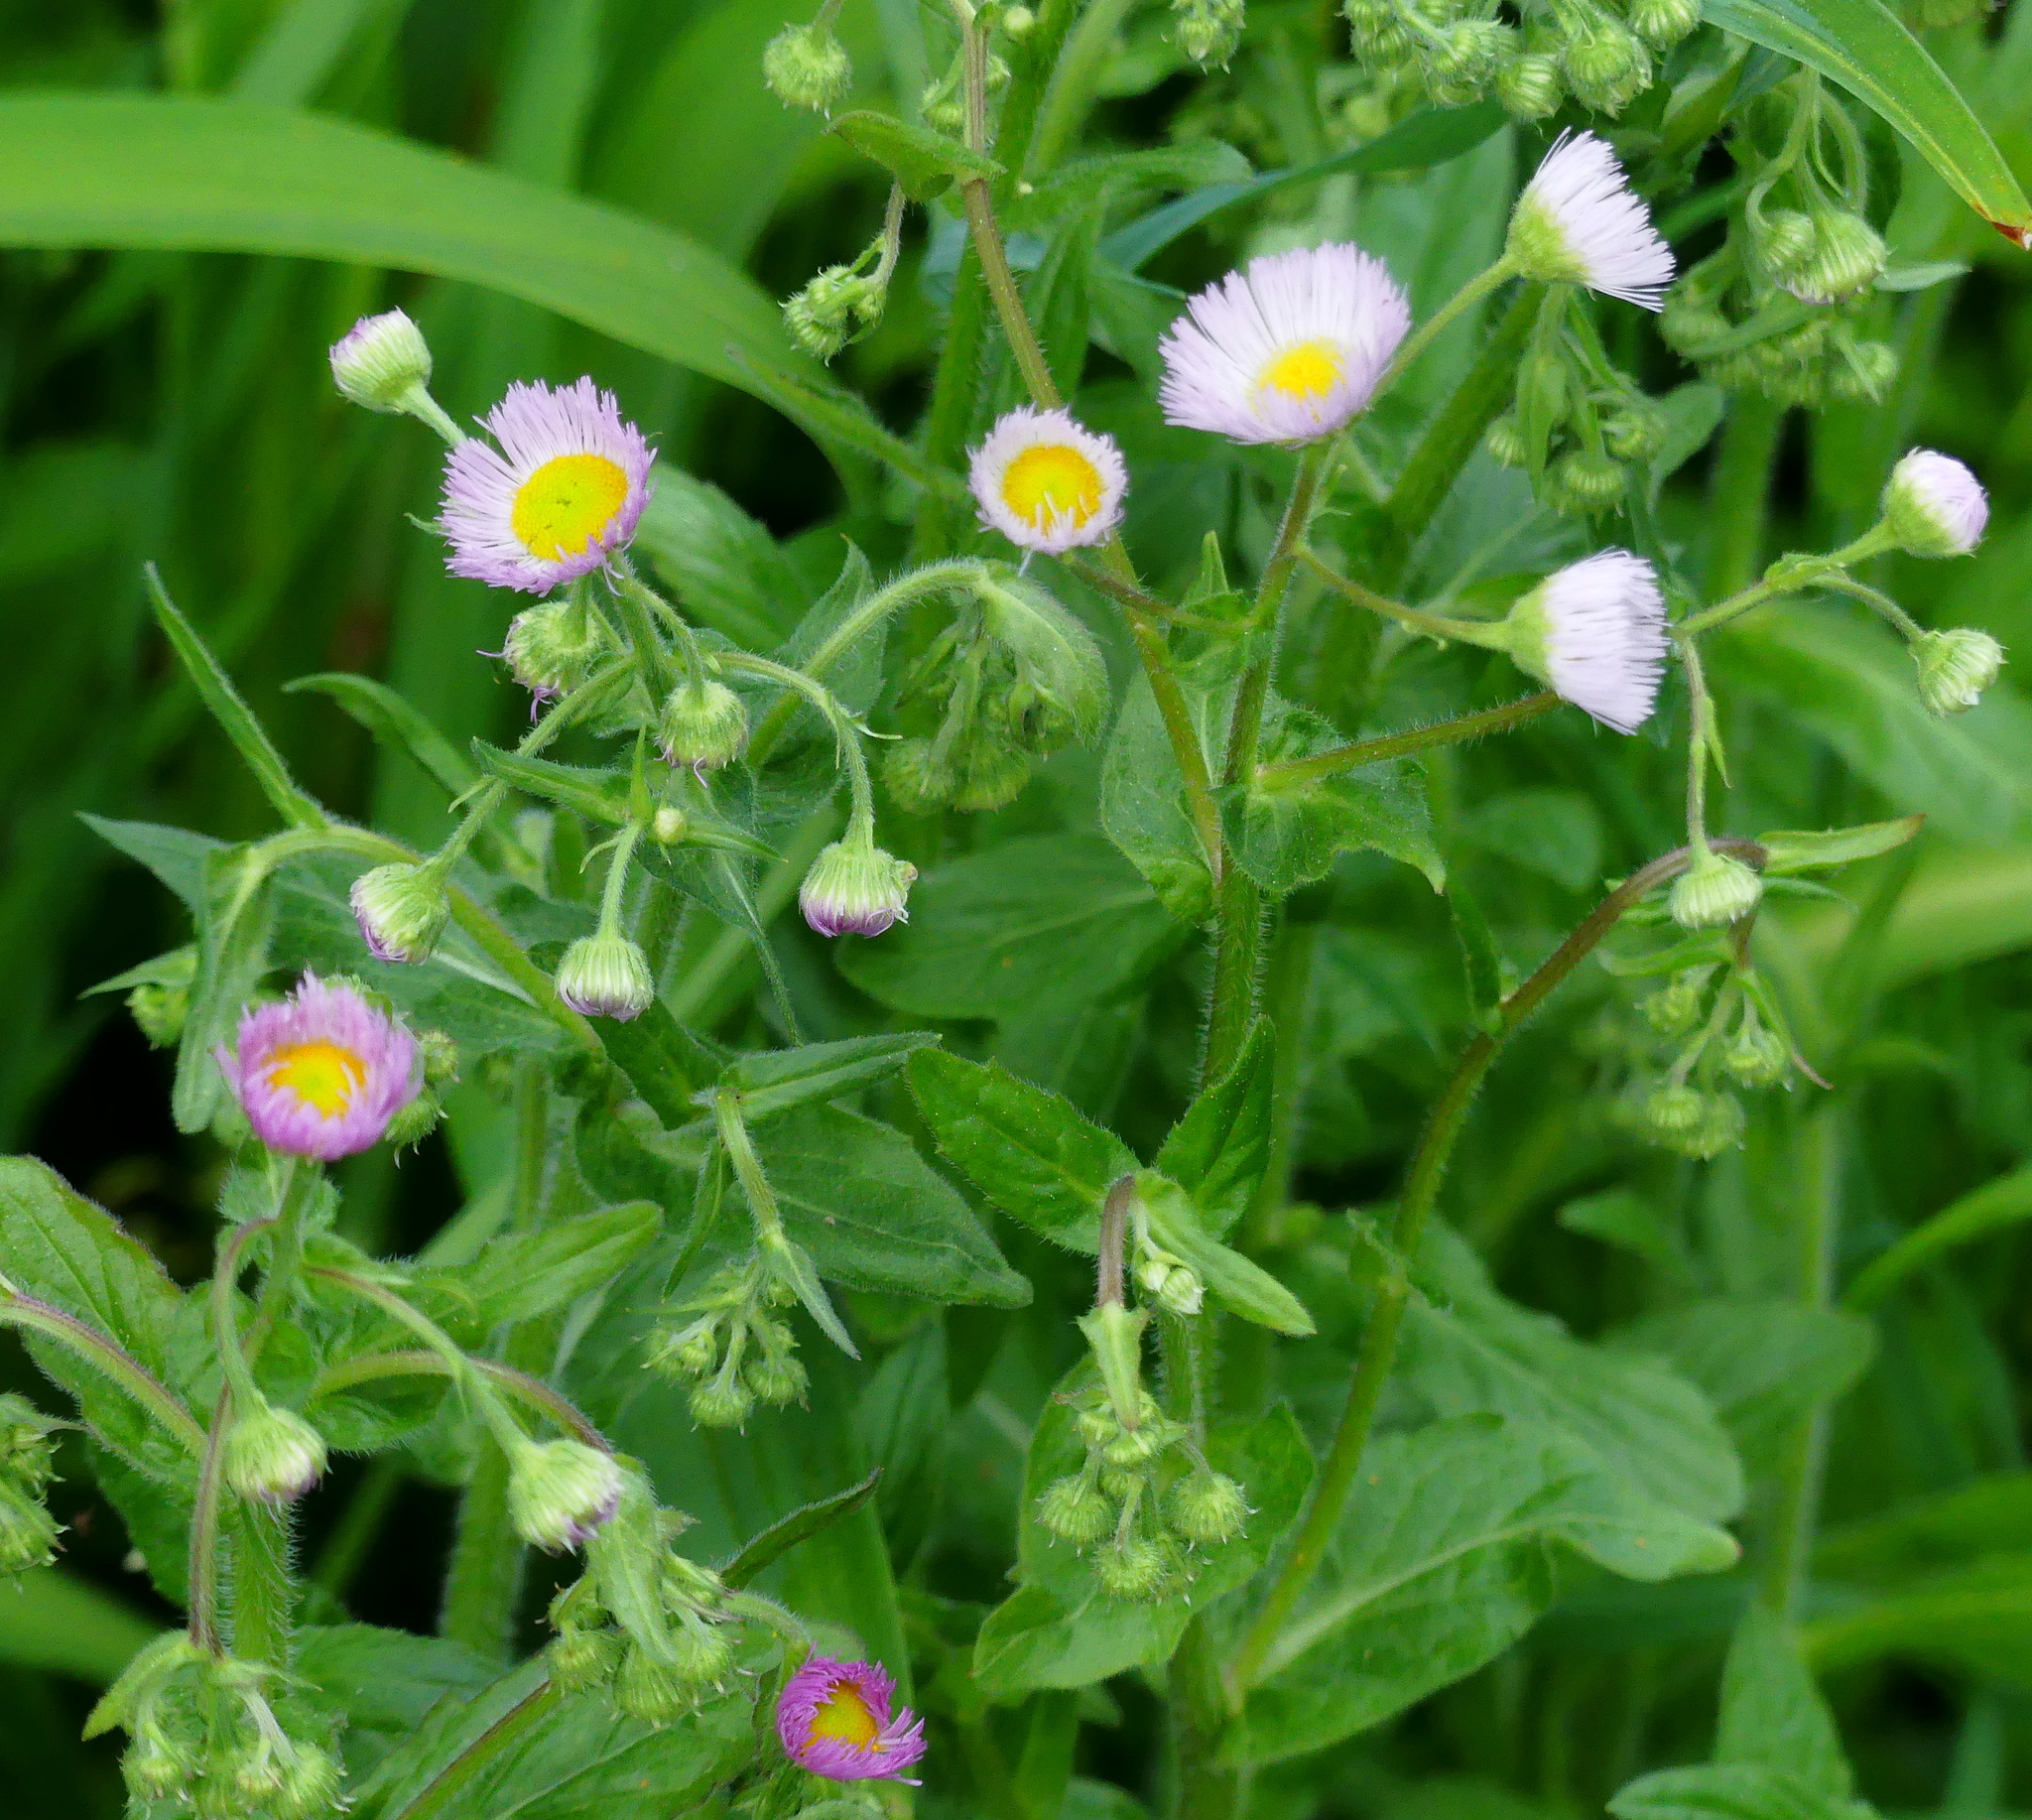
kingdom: Plantae
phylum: Tracheophyta
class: Magnoliopsida
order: Asterales
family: Asteraceae
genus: Erigeron
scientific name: Erigeron philadelphicus
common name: Robin's-plantain
